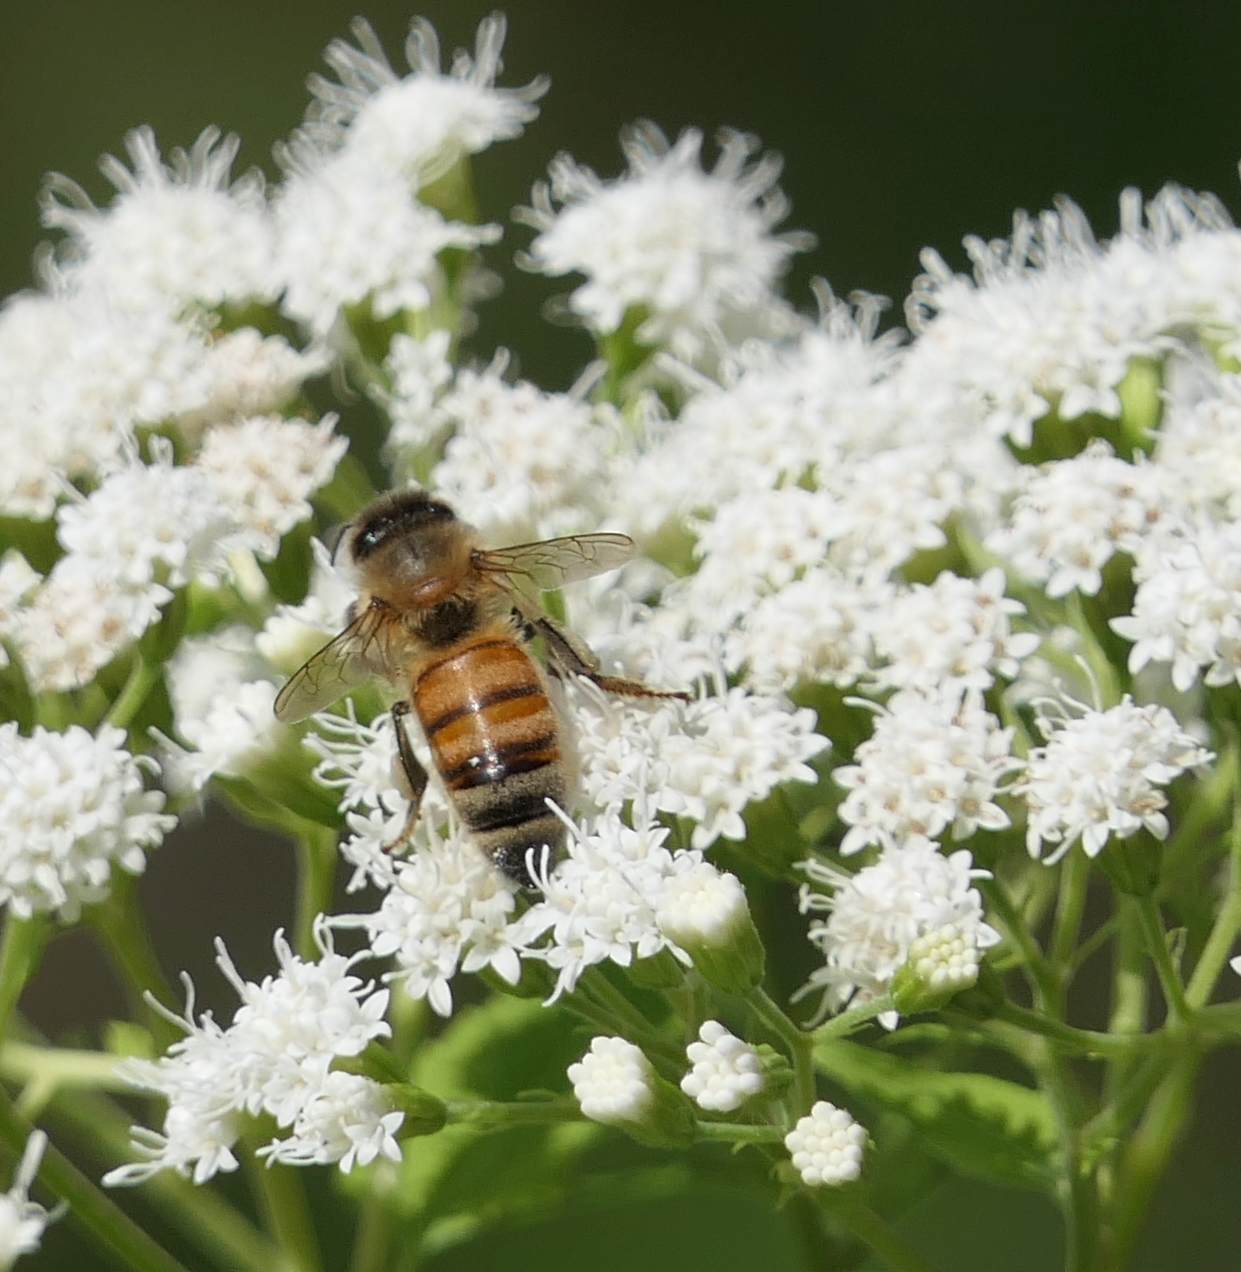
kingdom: Animalia
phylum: Arthropoda
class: Insecta
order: Hymenoptera
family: Apidae
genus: Apis
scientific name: Apis mellifera
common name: Honey bee
